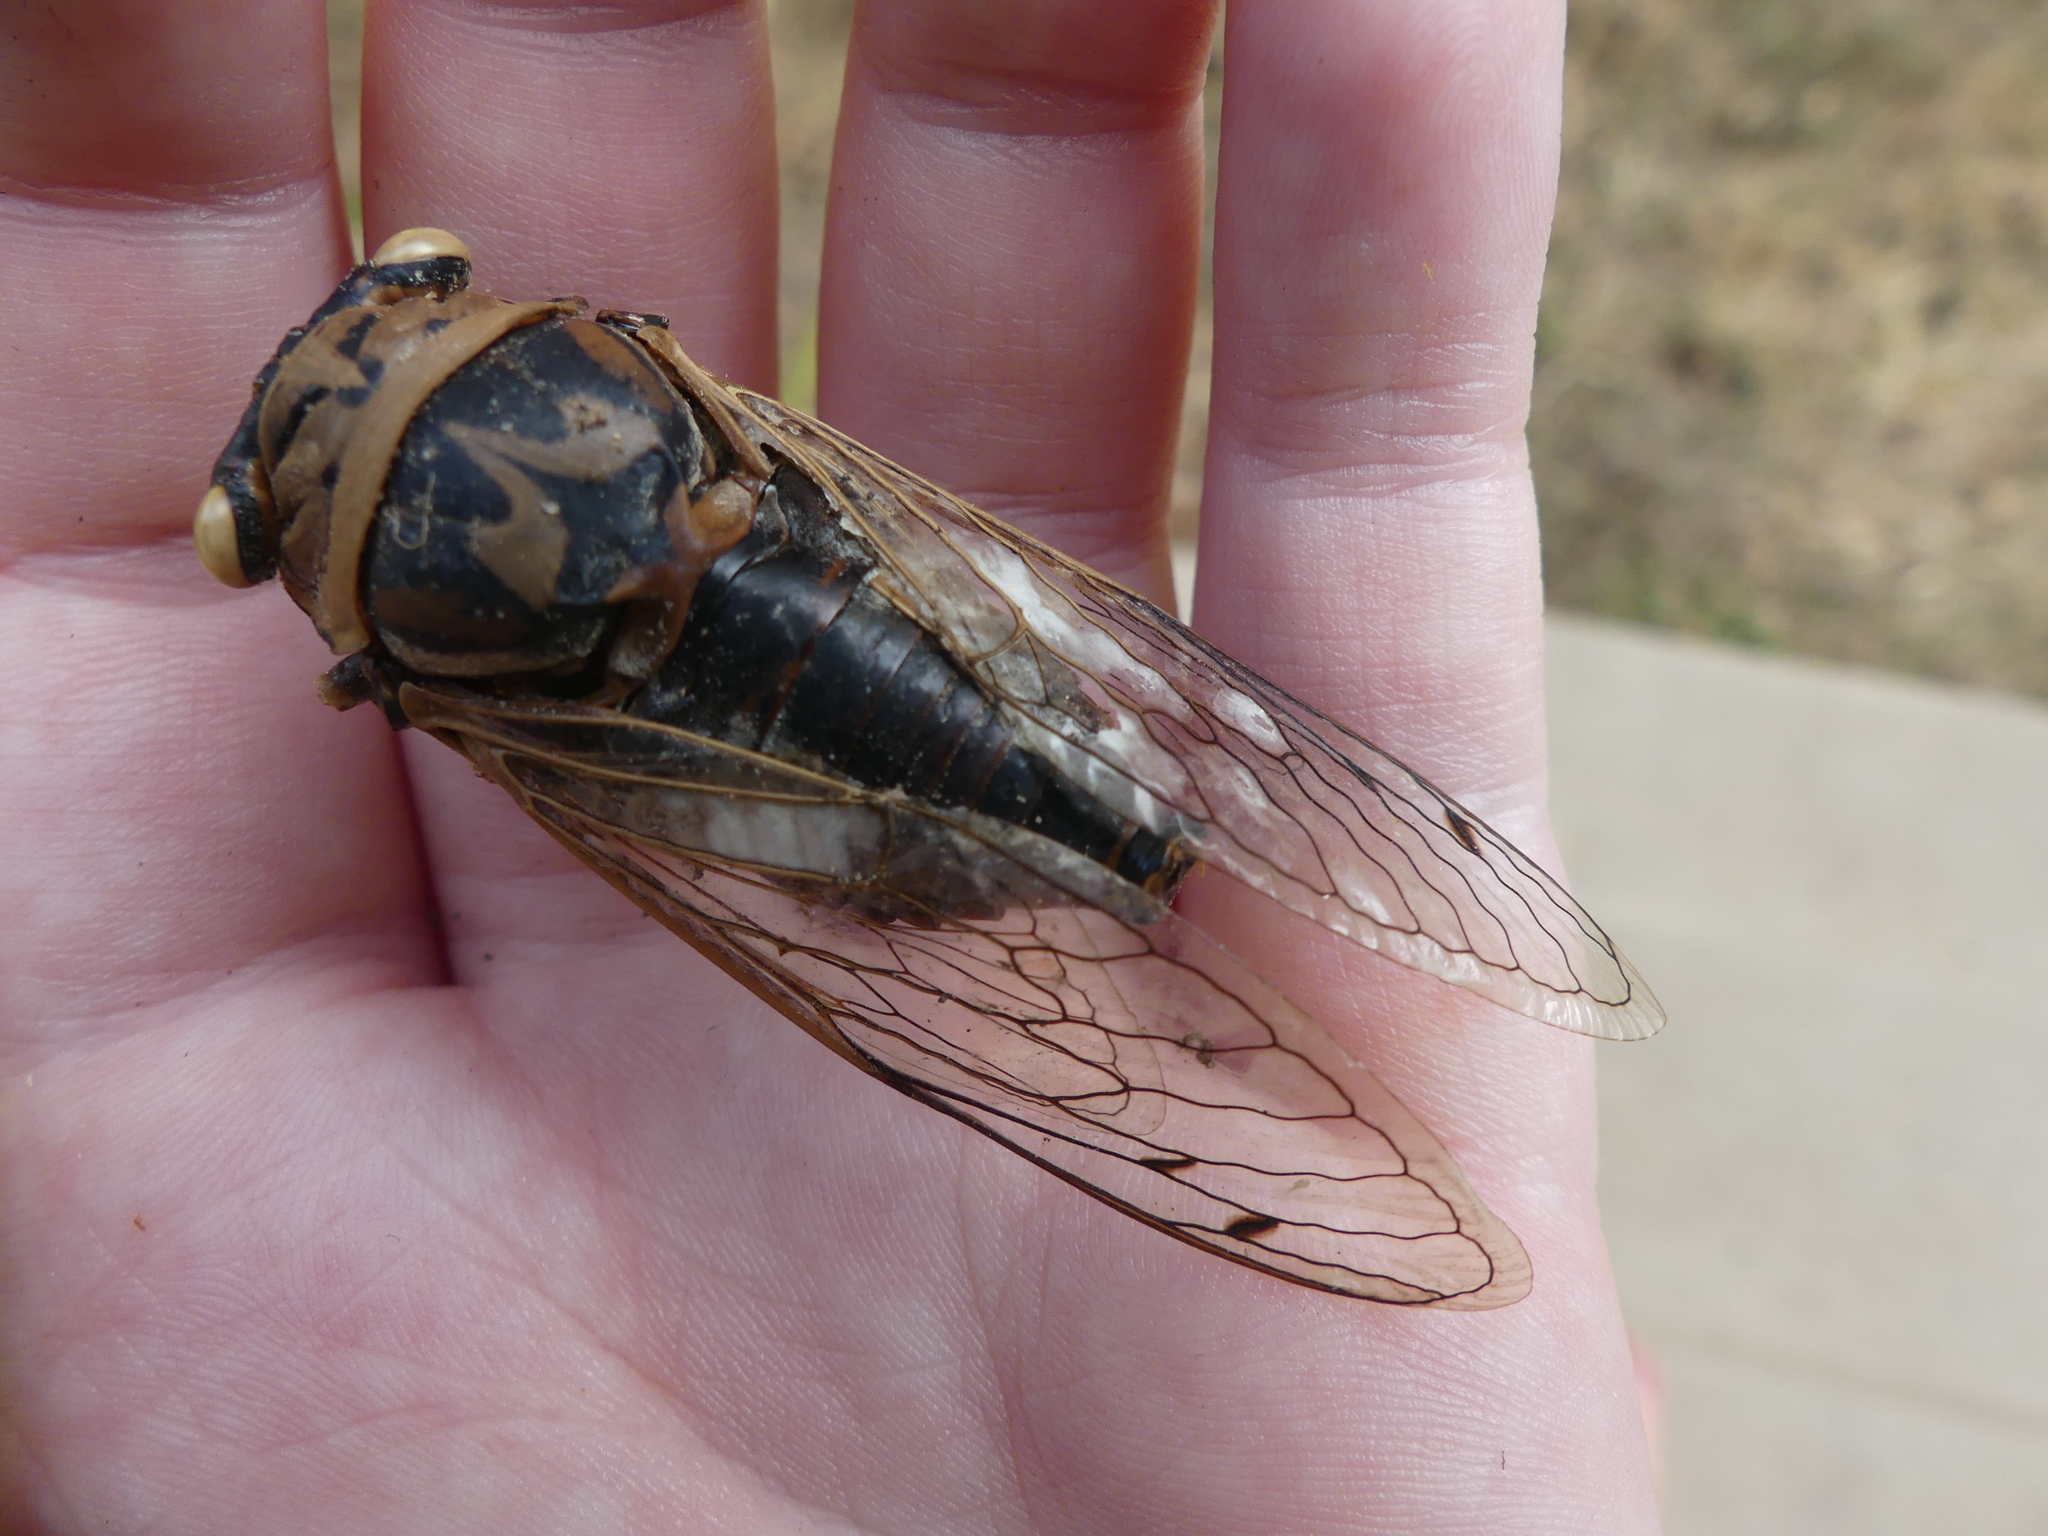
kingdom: Animalia
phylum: Arthropoda
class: Insecta
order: Hemiptera
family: Cicadidae
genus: Megatibicen
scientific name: Megatibicen resh
